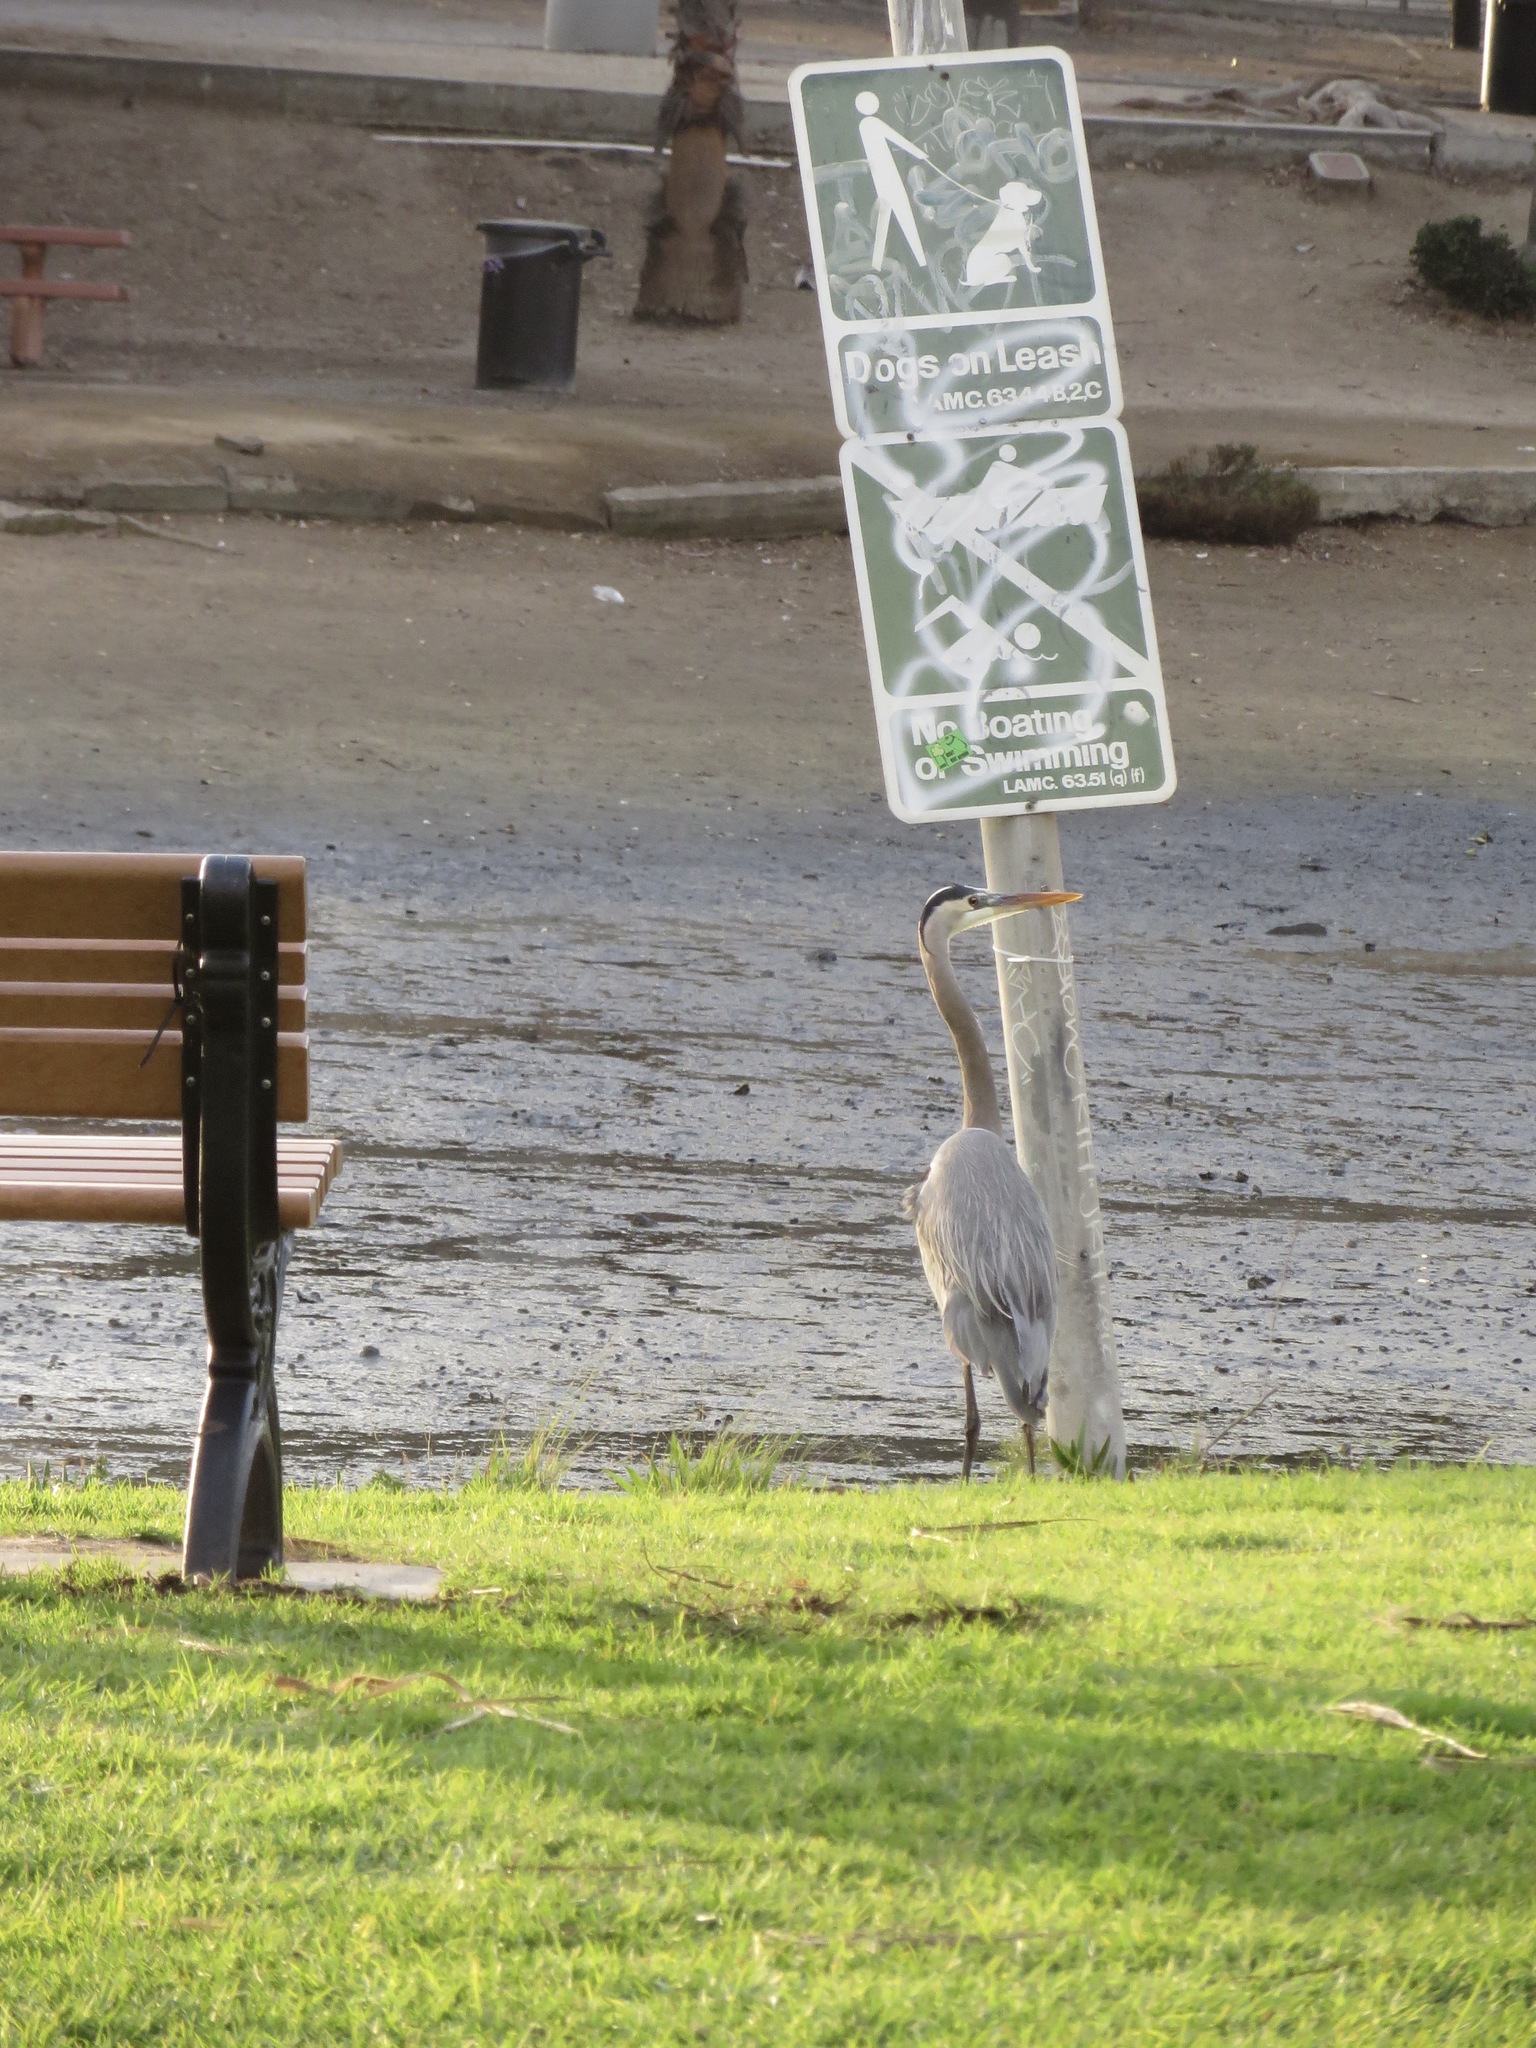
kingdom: Animalia
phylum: Chordata
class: Aves
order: Pelecaniformes
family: Ardeidae
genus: Ardea
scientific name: Ardea herodias
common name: Great blue heron
